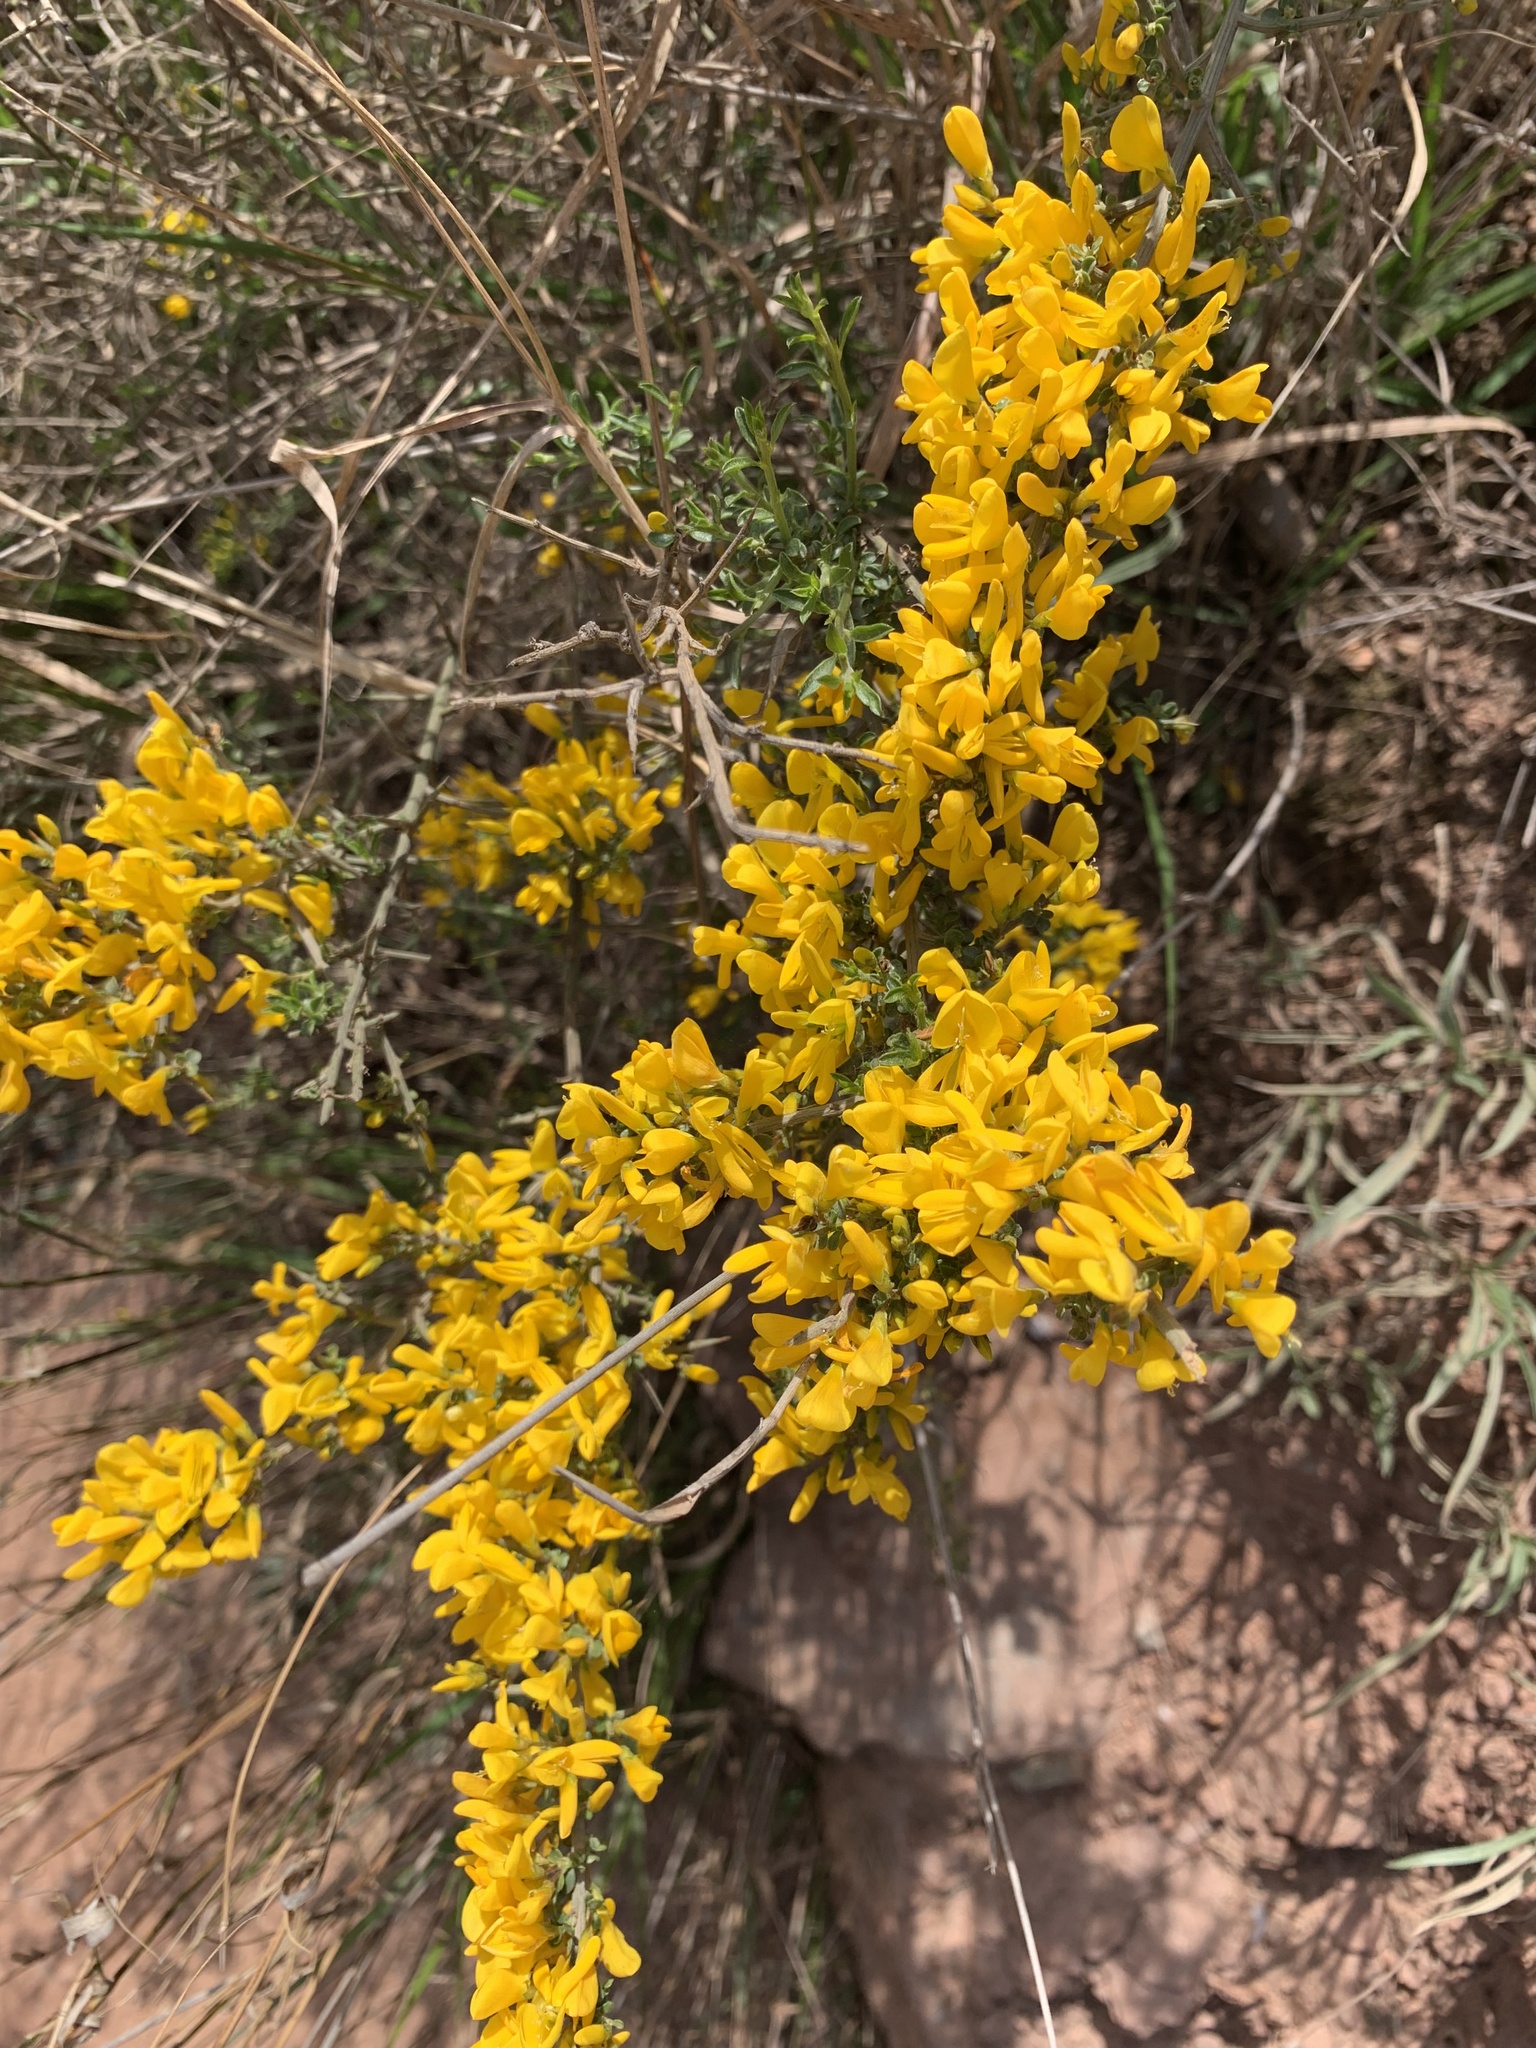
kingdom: Plantae
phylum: Tracheophyta
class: Magnoliopsida
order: Fabales
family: Fabaceae
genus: Genista
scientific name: Genista scorpius
